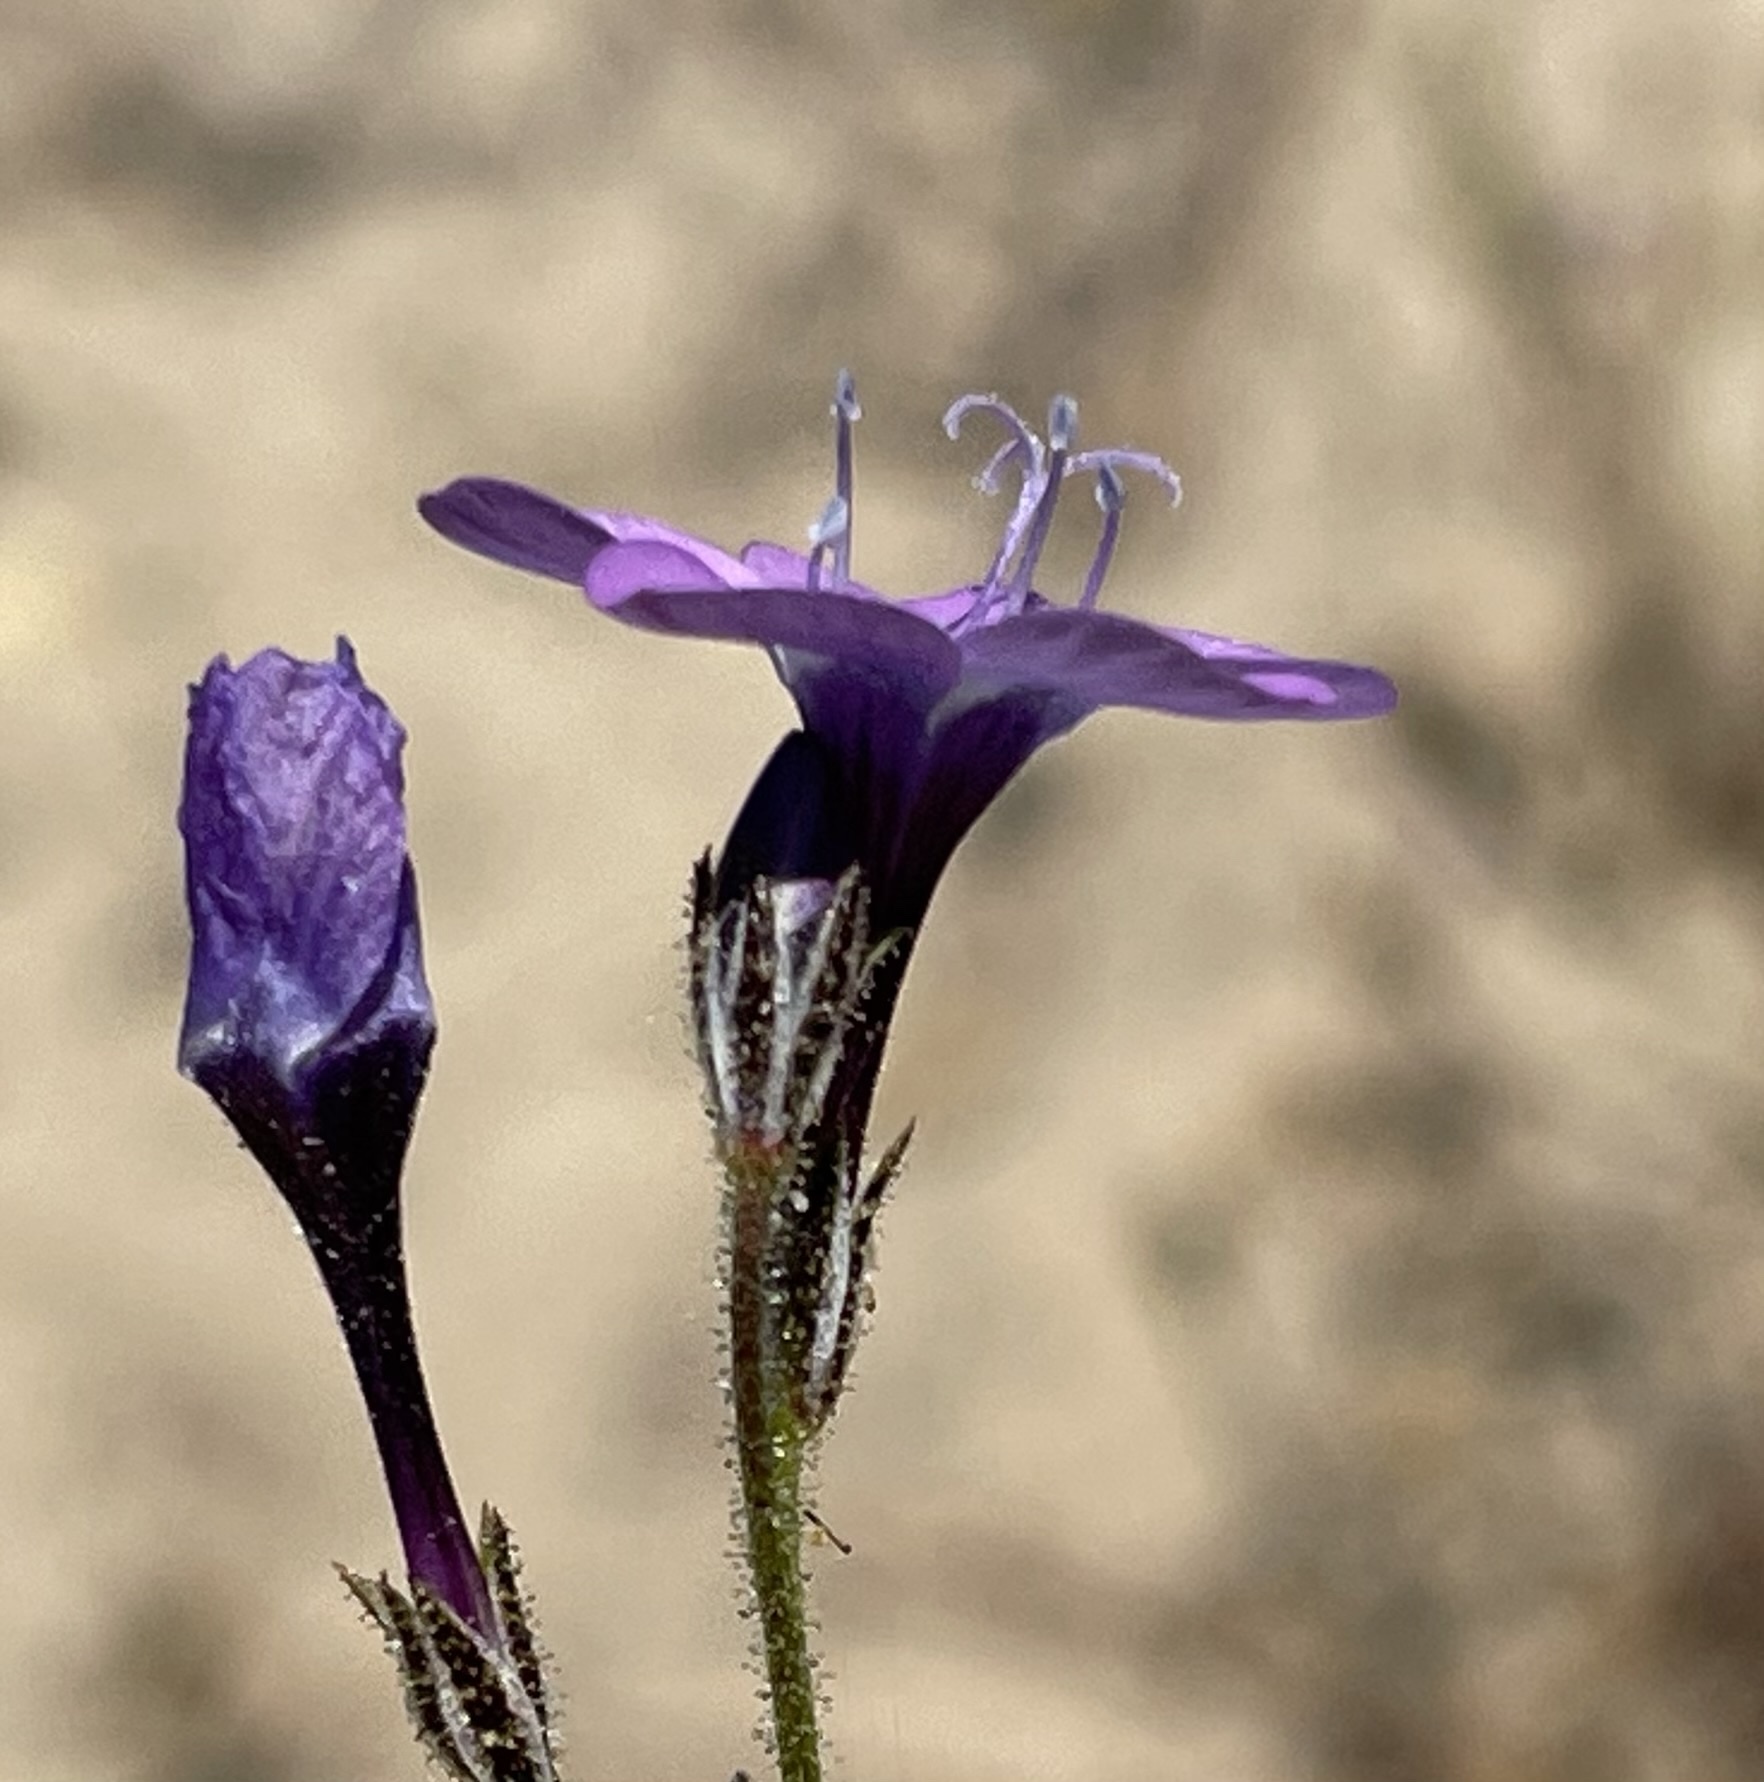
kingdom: Plantae
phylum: Tracheophyta
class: Magnoliopsida
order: Ericales
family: Polemoniaceae
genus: Gilia
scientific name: Gilia tenuiflora
